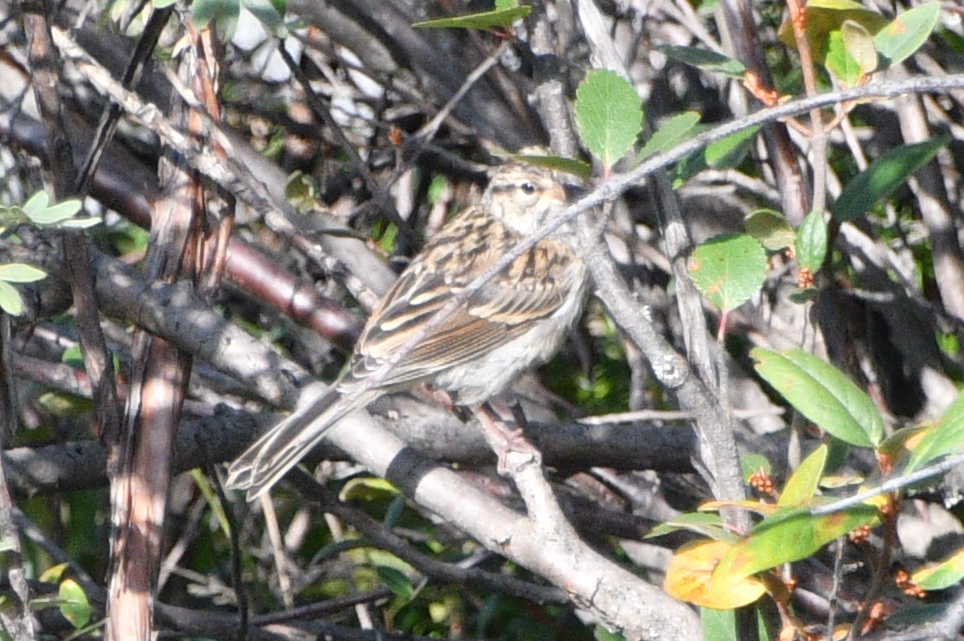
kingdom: Animalia
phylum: Chordata
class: Aves
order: Passeriformes
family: Passerellidae
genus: Spizella
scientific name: Spizella passerina
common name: Chipping sparrow
